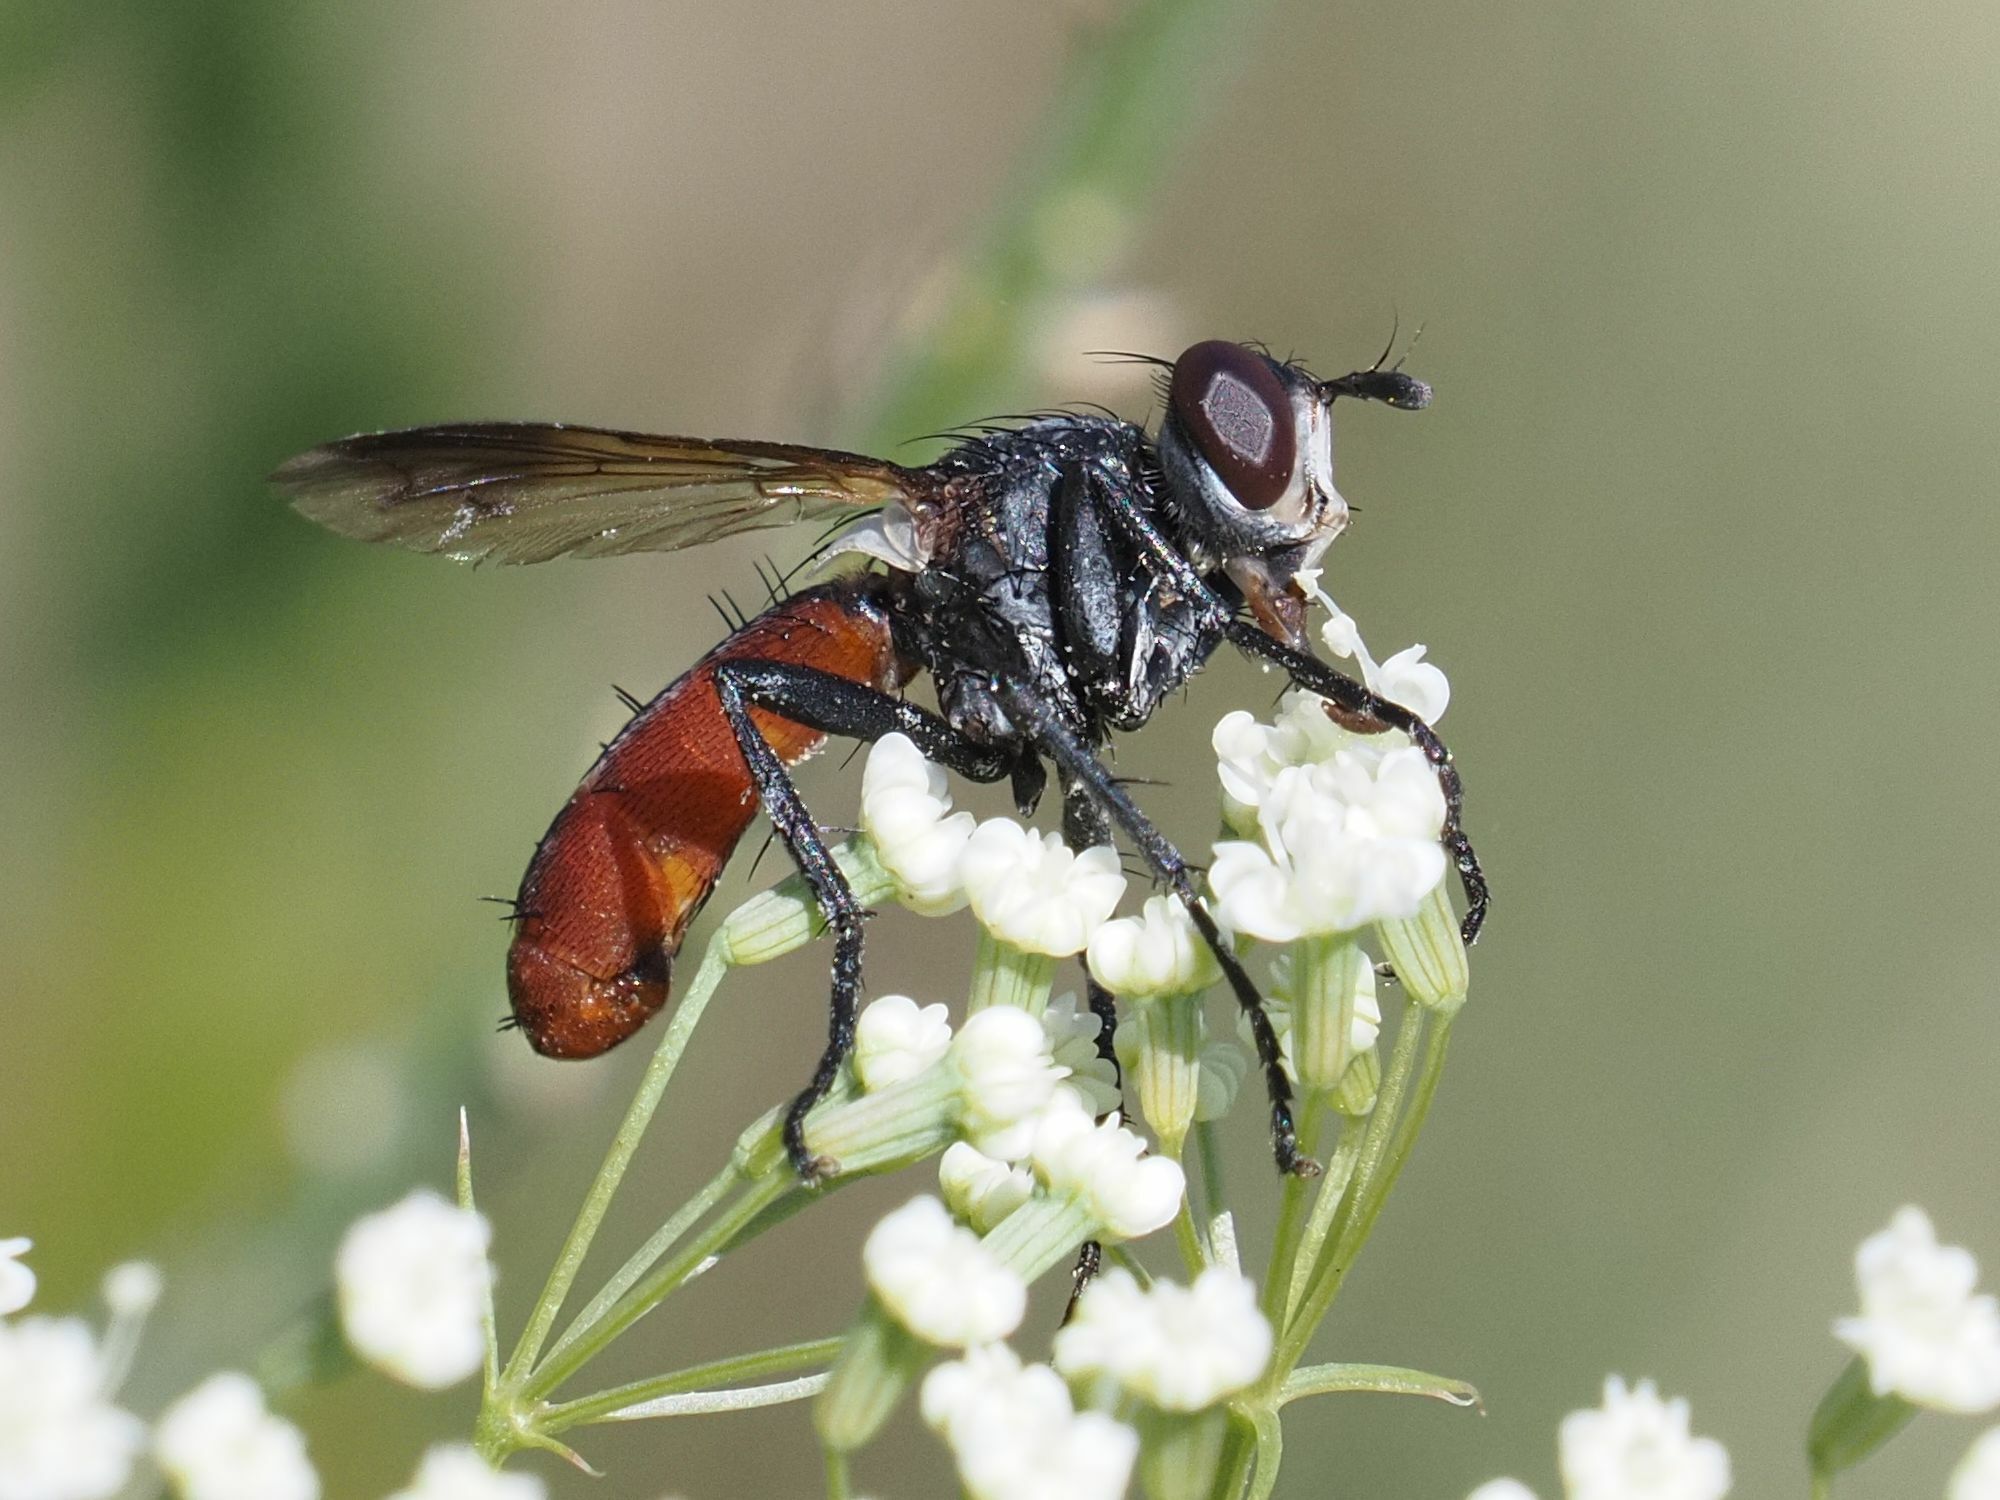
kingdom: Animalia
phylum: Arthropoda
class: Insecta
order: Diptera
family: Tachinidae
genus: Cylindromyia
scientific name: Cylindromyia bicolor
